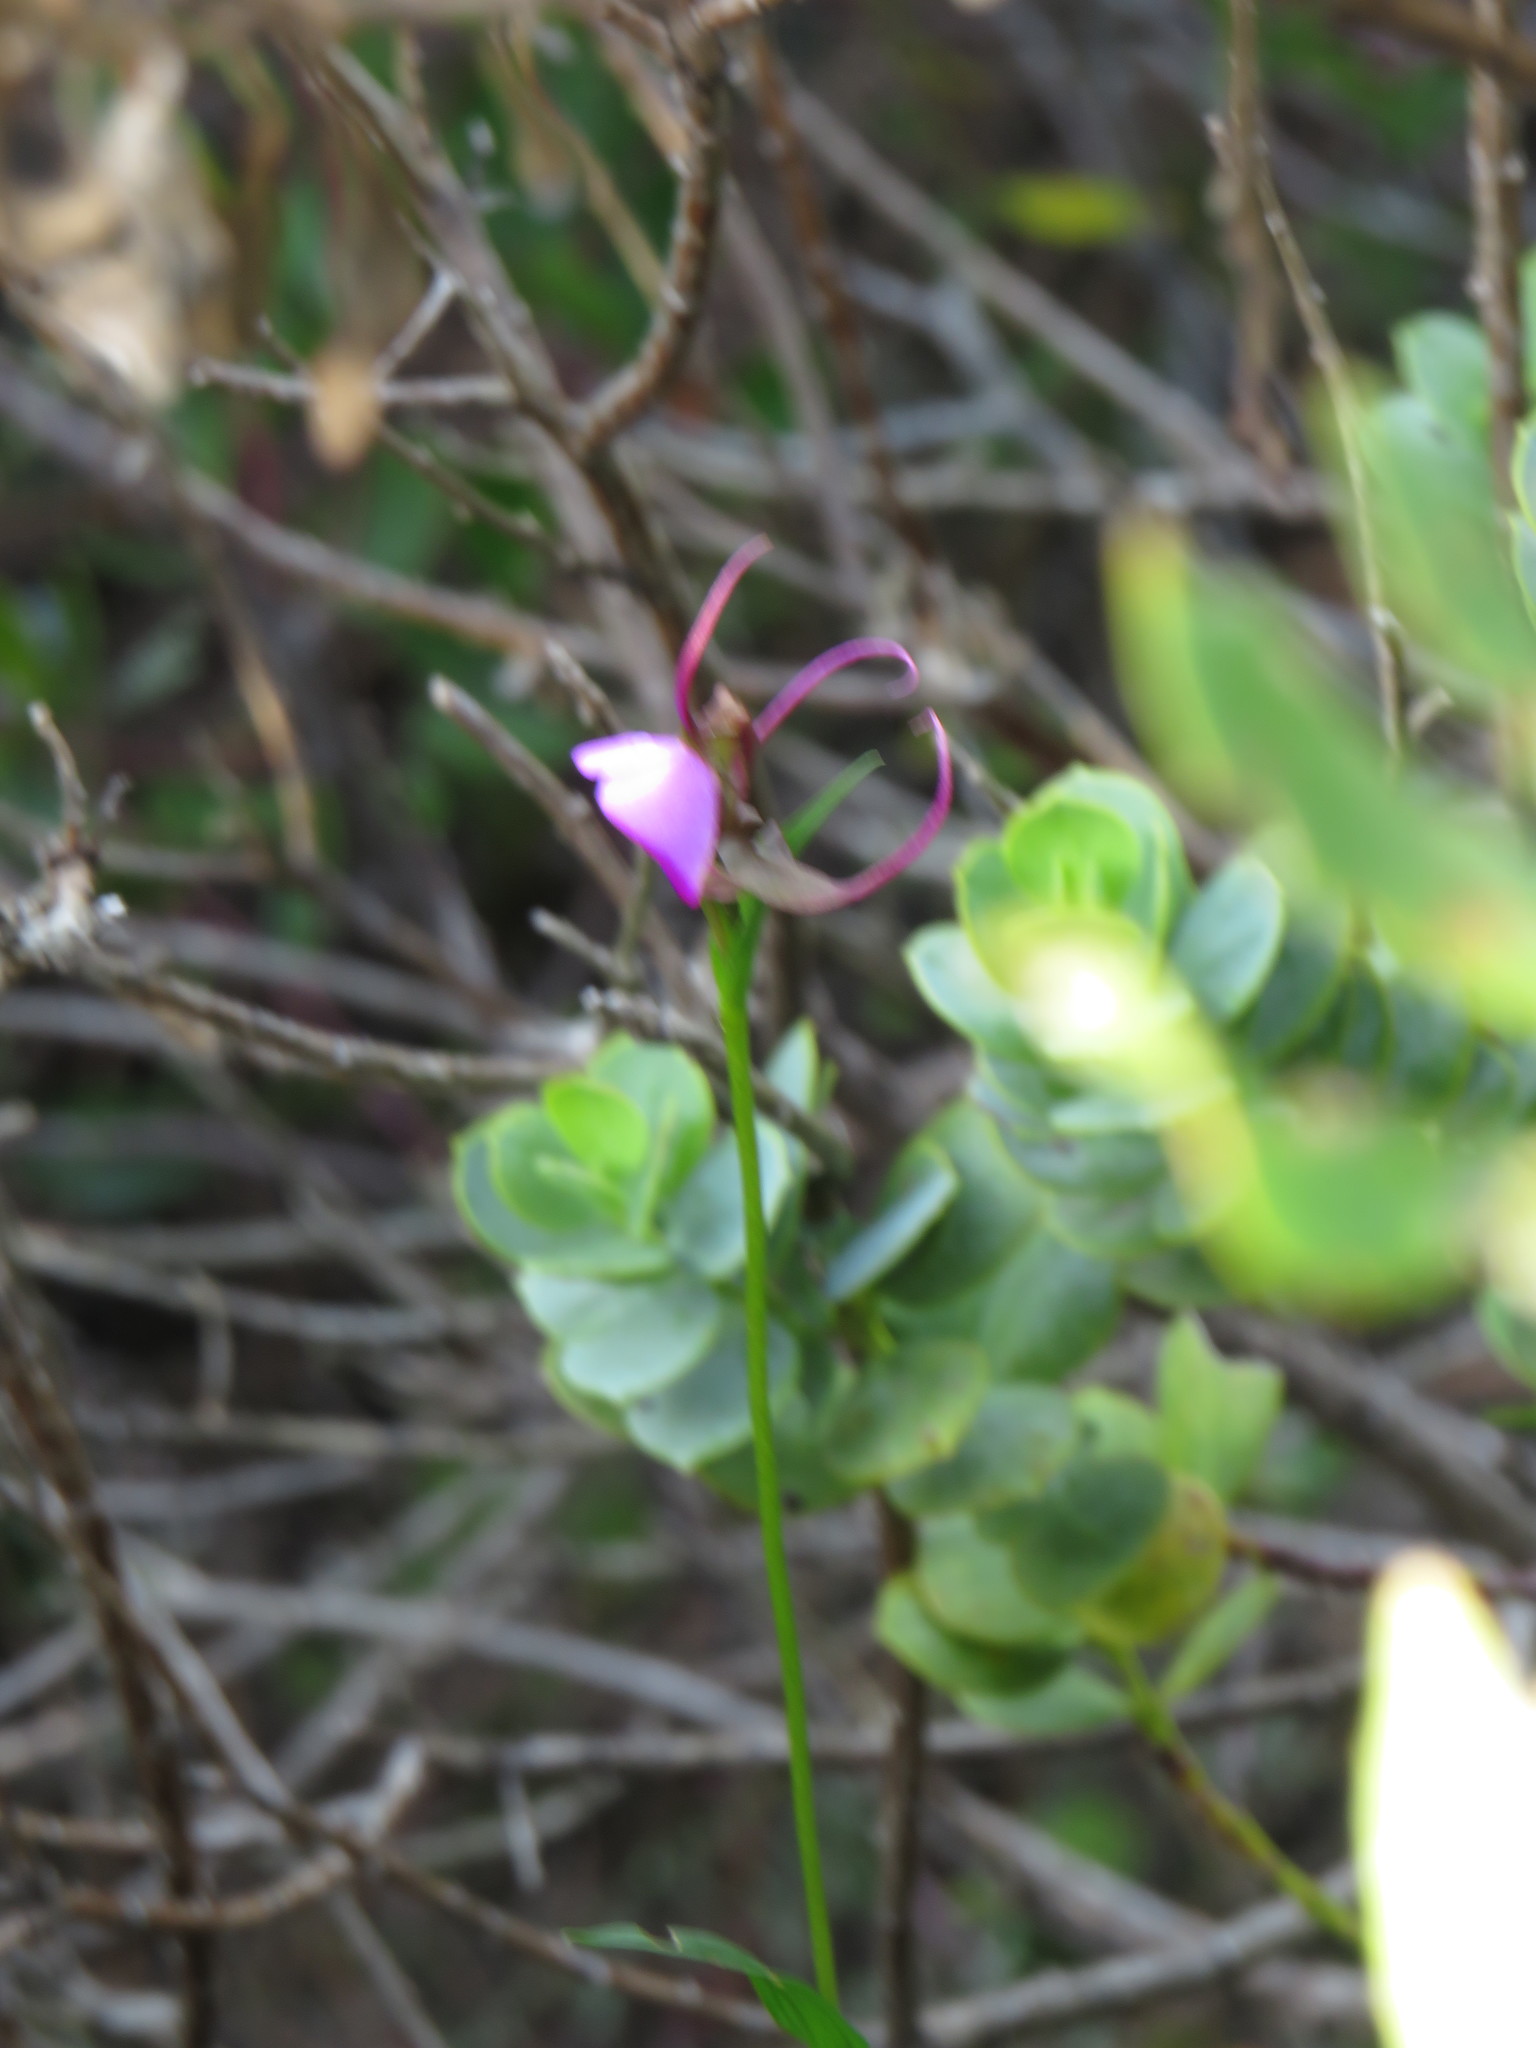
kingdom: Plantae
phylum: Tracheophyta
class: Liliopsida
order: Asparagales
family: Orchidaceae
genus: Disperis
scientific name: Disperis capensis
